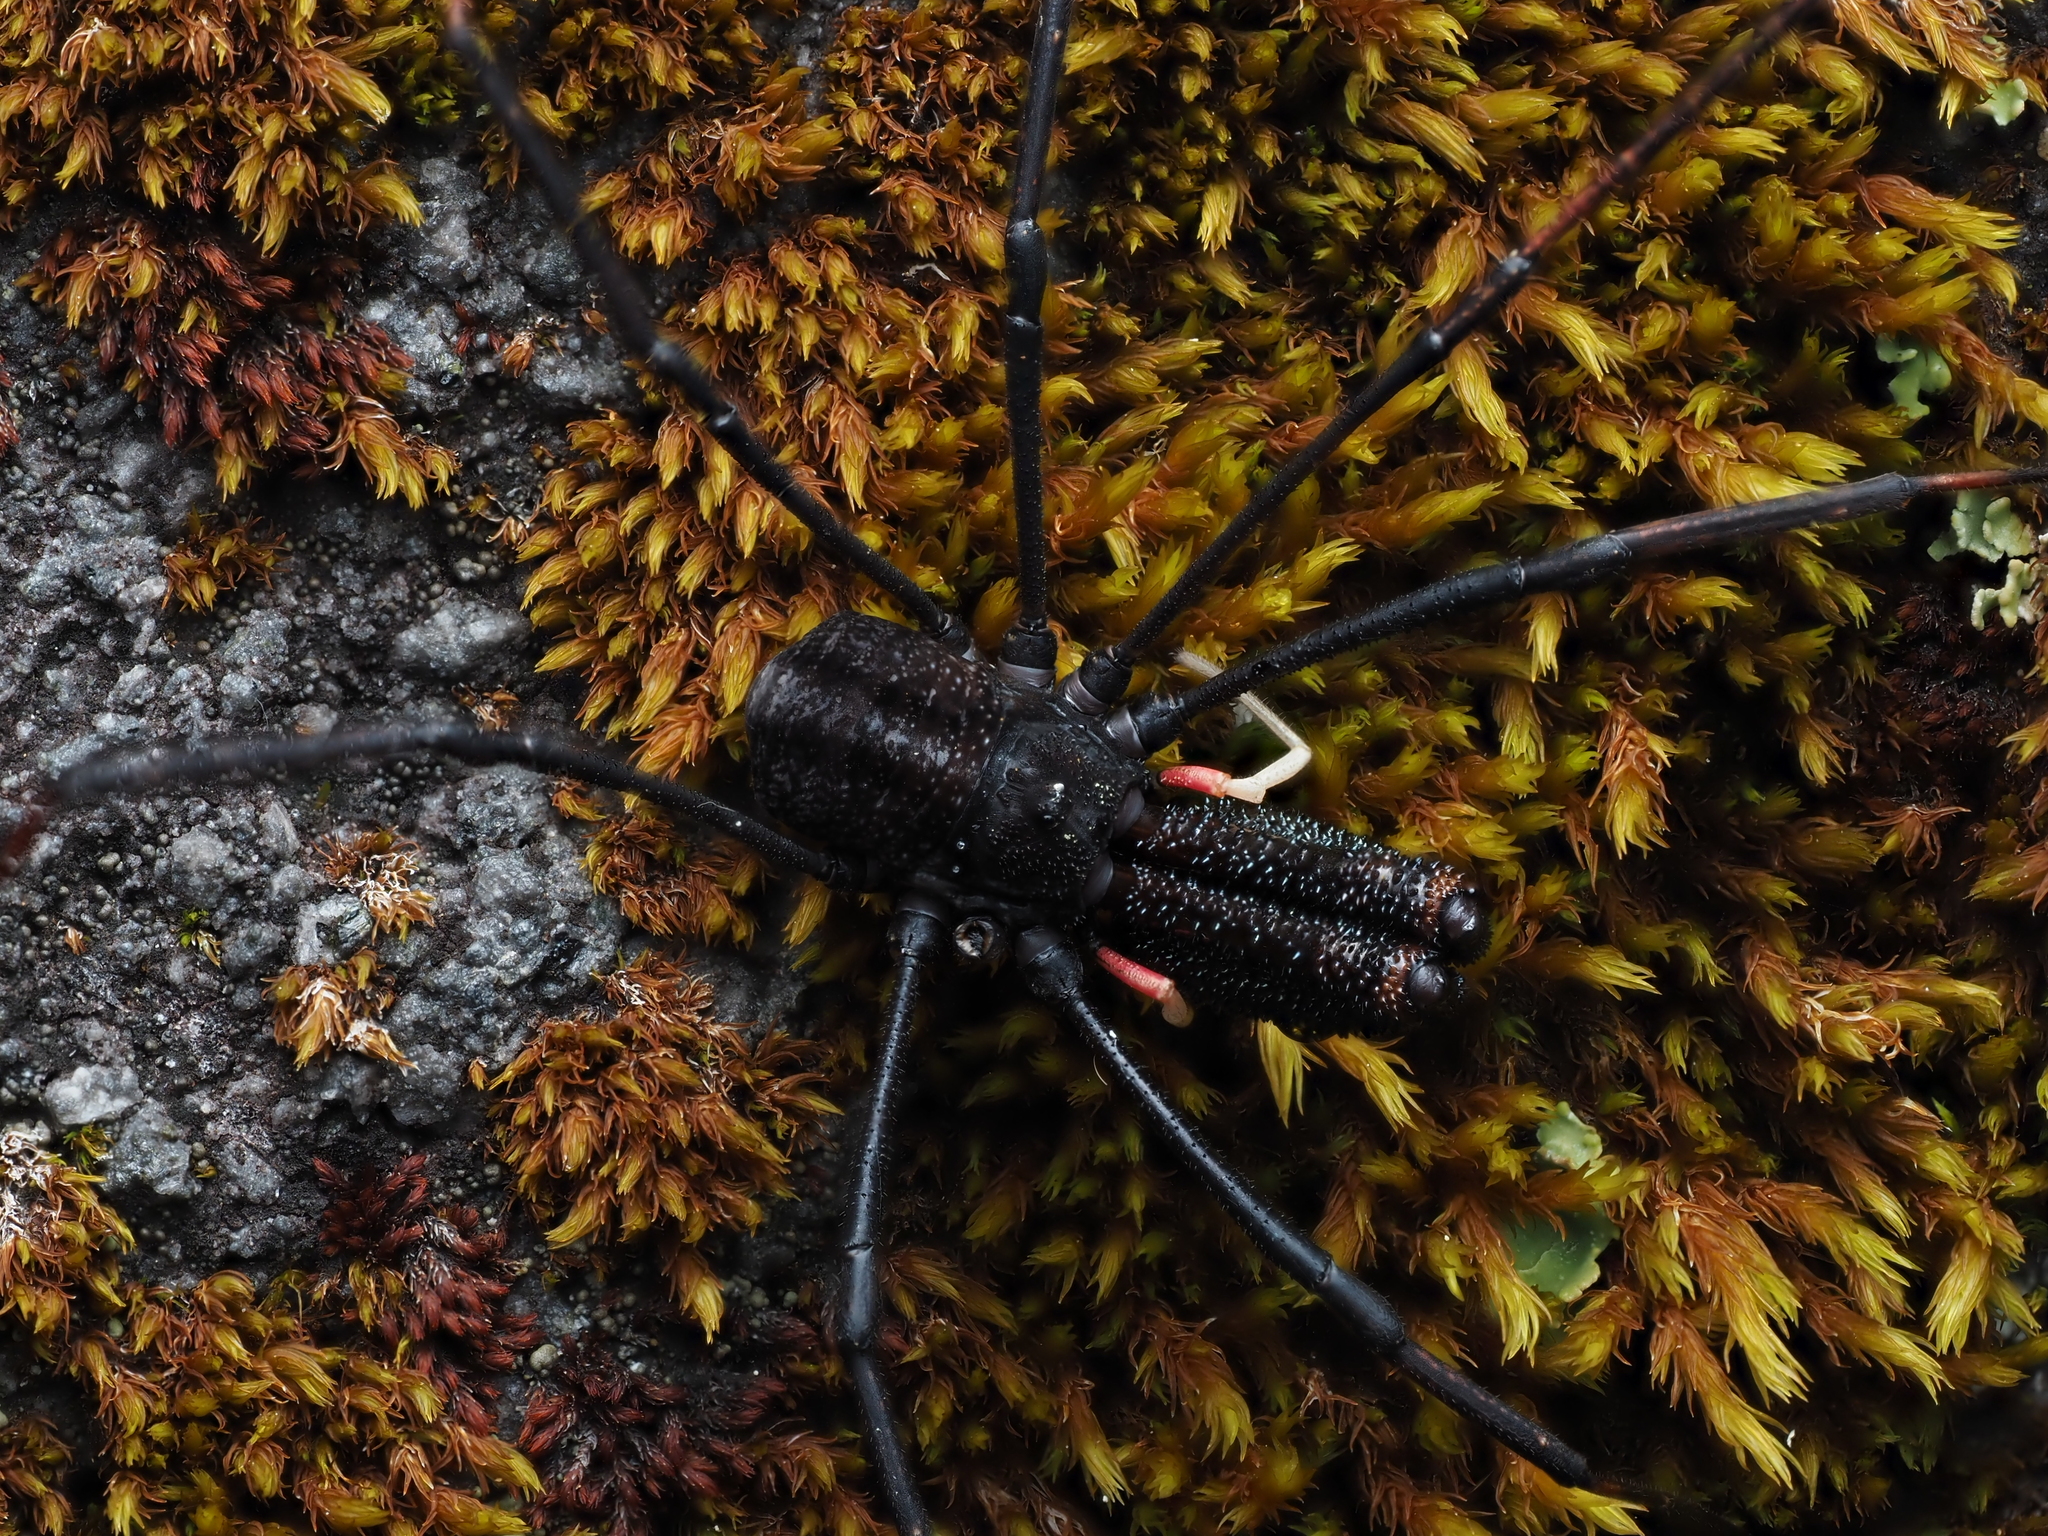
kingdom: Animalia
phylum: Arthropoda
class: Arachnida
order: Opiliones
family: Neopilionidae
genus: Forsteropsalis
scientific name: Forsteropsalis inconstans
